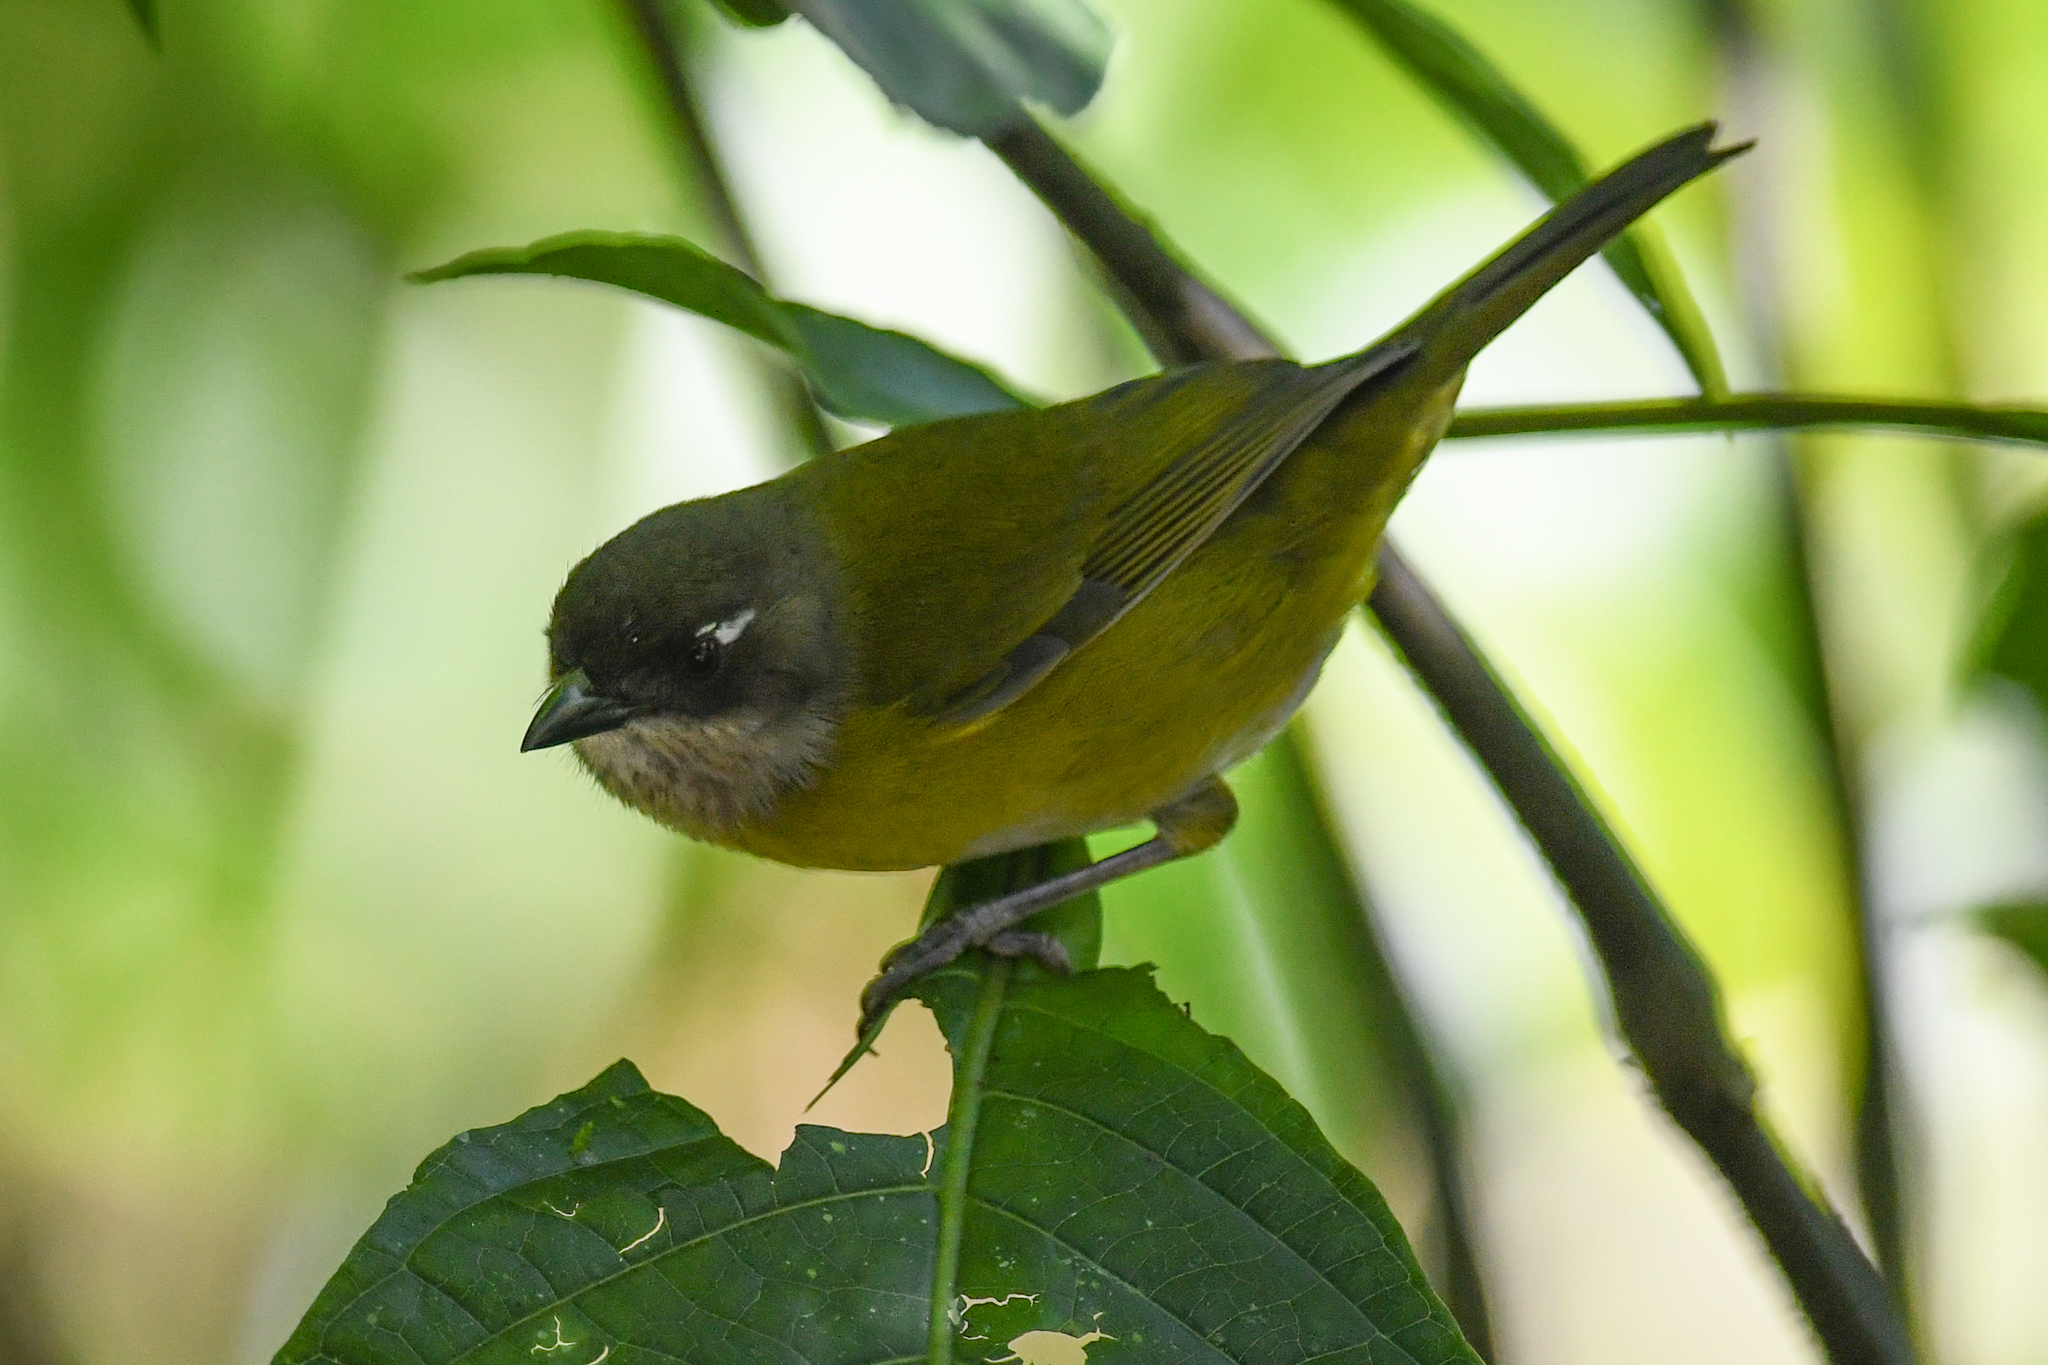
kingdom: Animalia
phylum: Chordata
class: Aves
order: Passeriformes
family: Passerellidae
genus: Chlorospingus
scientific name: Chlorospingus flavopectus
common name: Common chlorospingus
